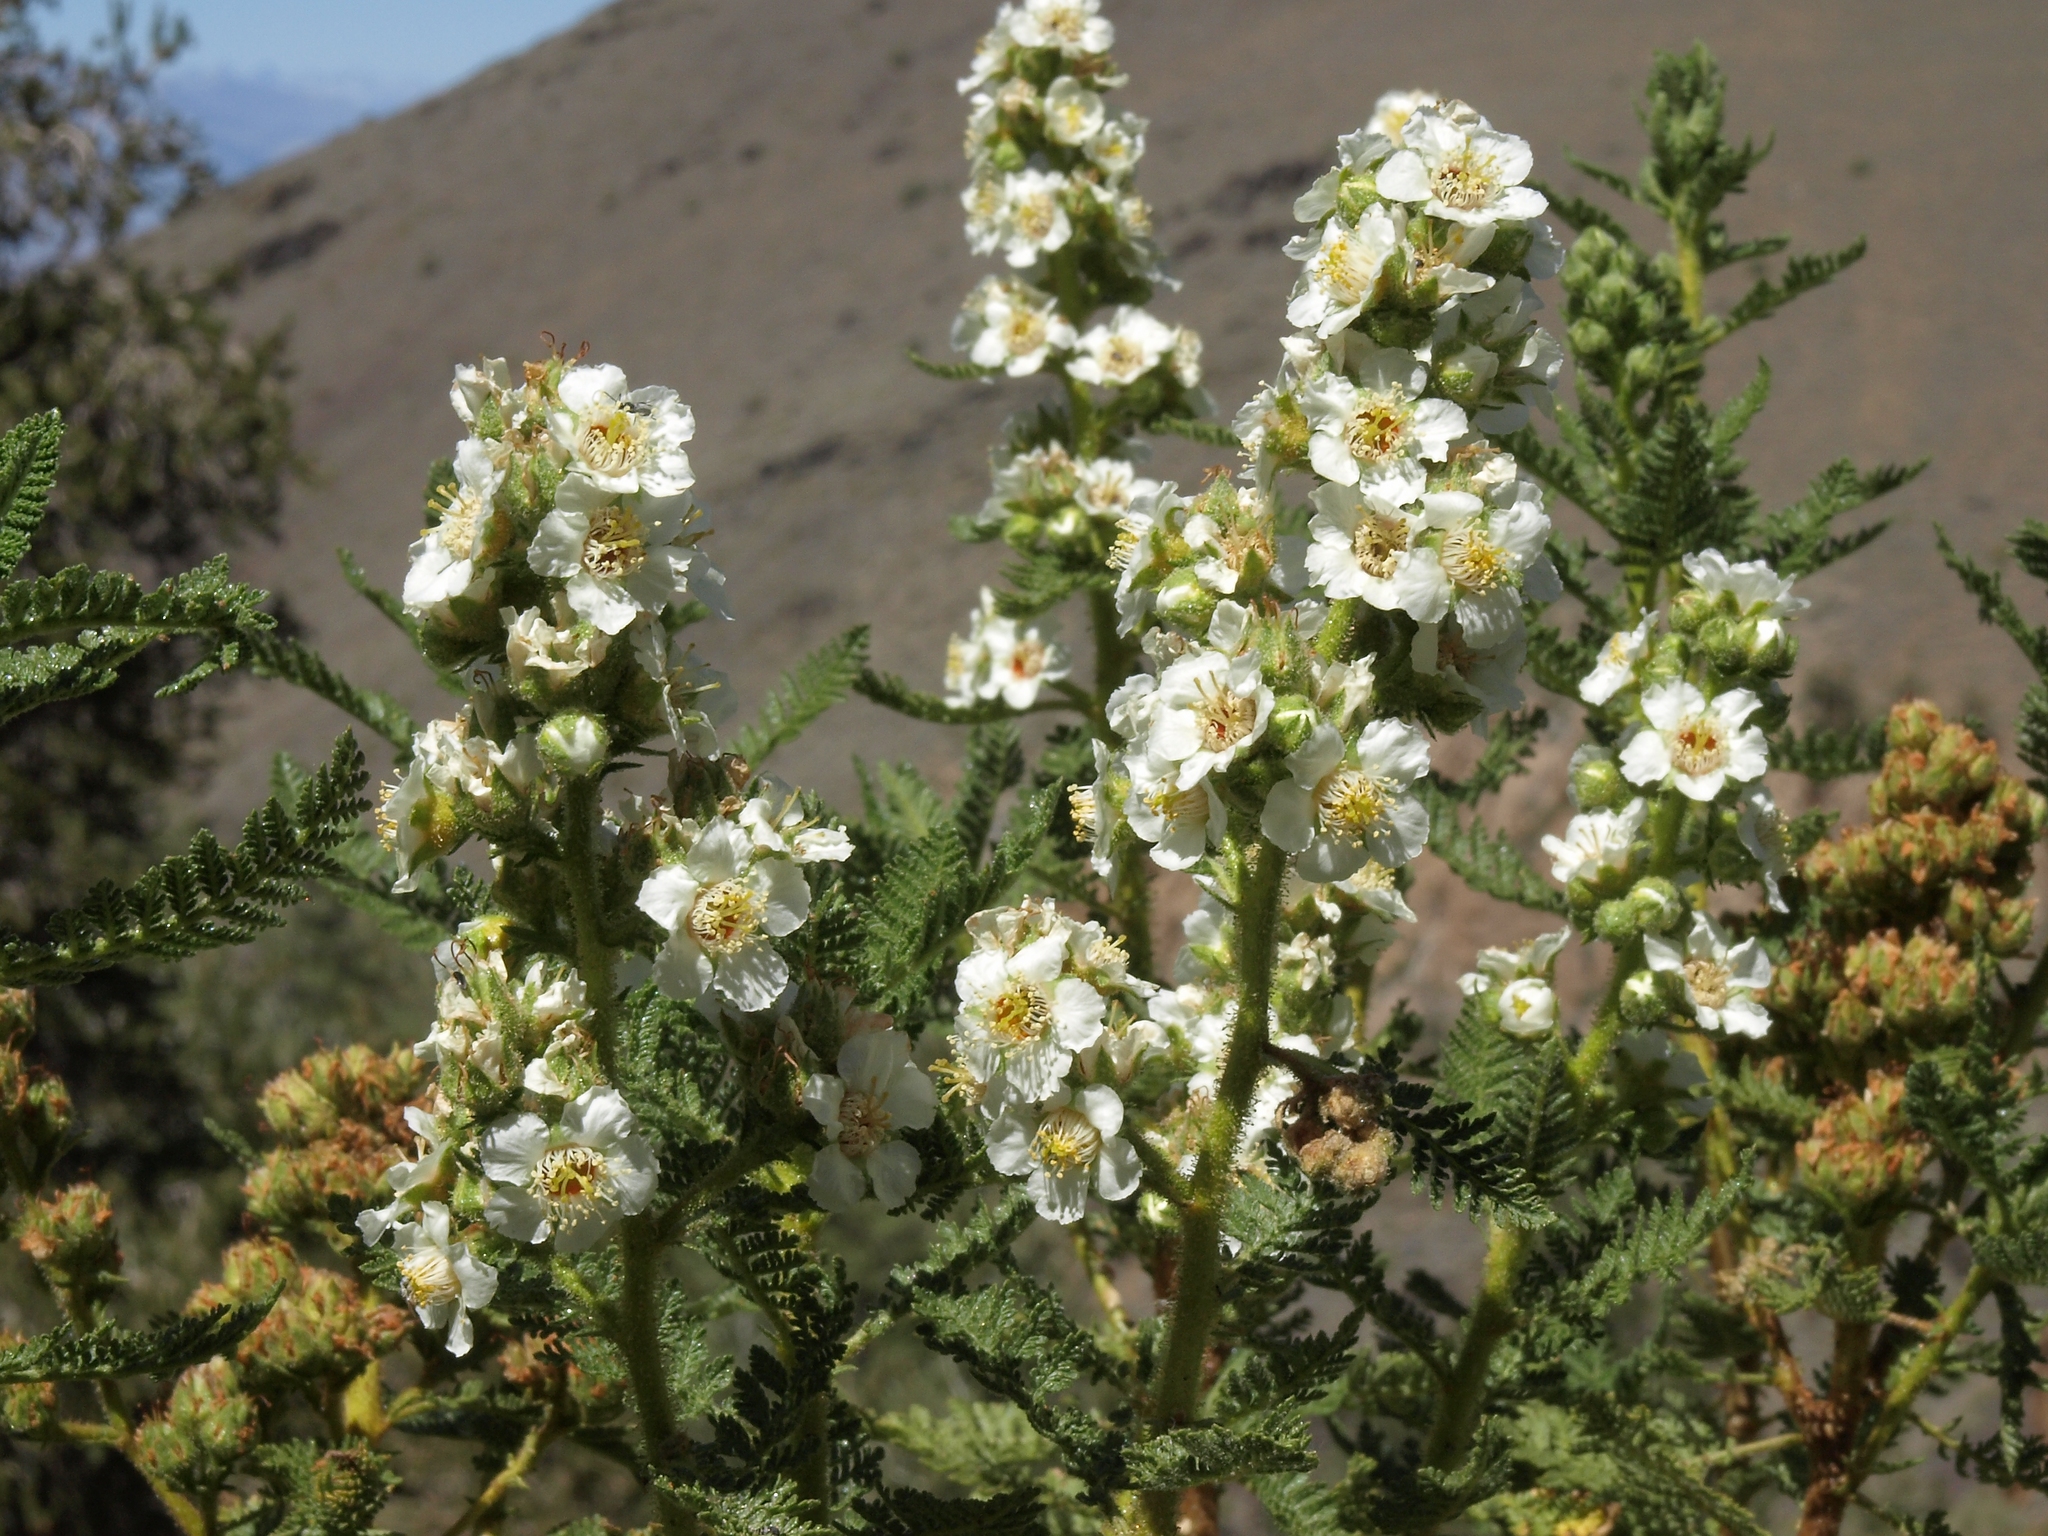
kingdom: Plantae
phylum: Tracheophyta
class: Magnoliopsida
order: Rosales
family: Rosaceae
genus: Chamaebatiaria
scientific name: Chamaebatiaria millefolium
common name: Fernbush
